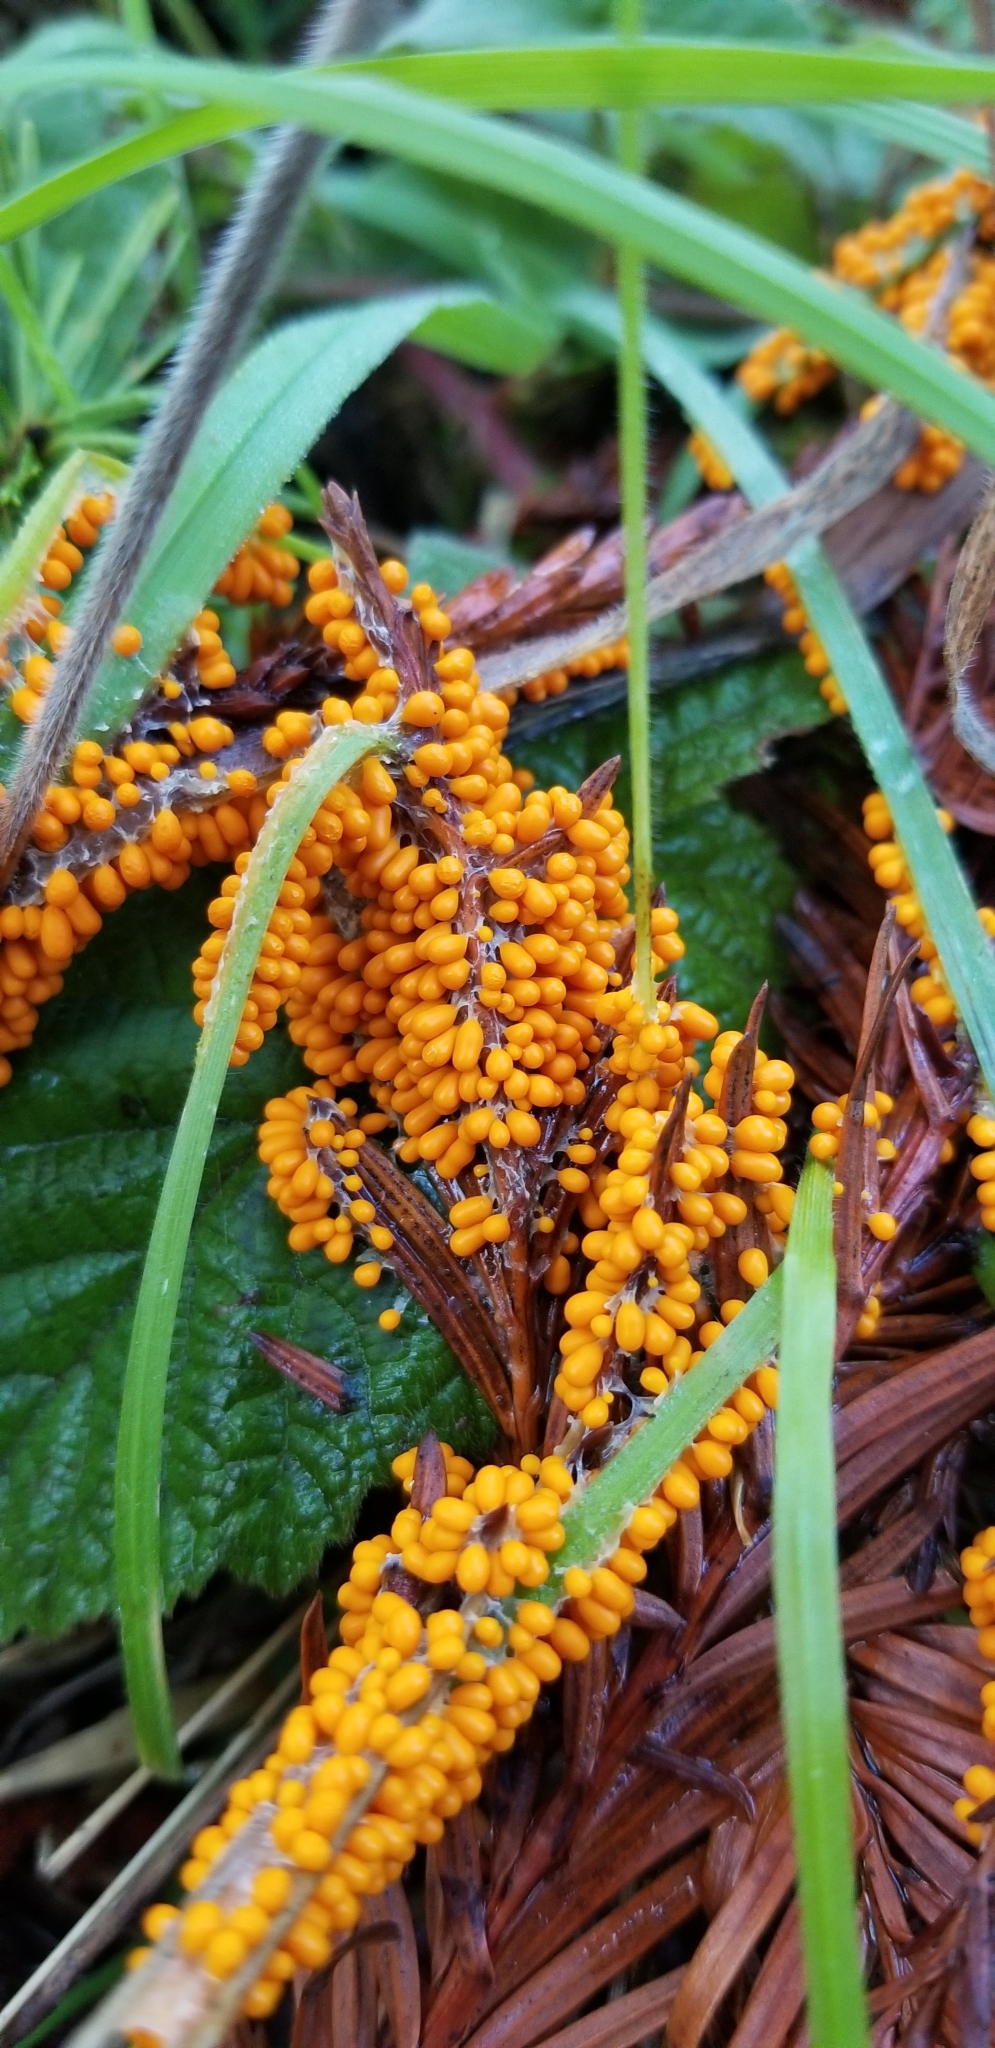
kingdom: Protozoa
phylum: Mycetozoa
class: Myxomycetes
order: Physarales
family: Physaraceae
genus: Leocarpus
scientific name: Leocarpus fragilis
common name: Insect-egg slime
